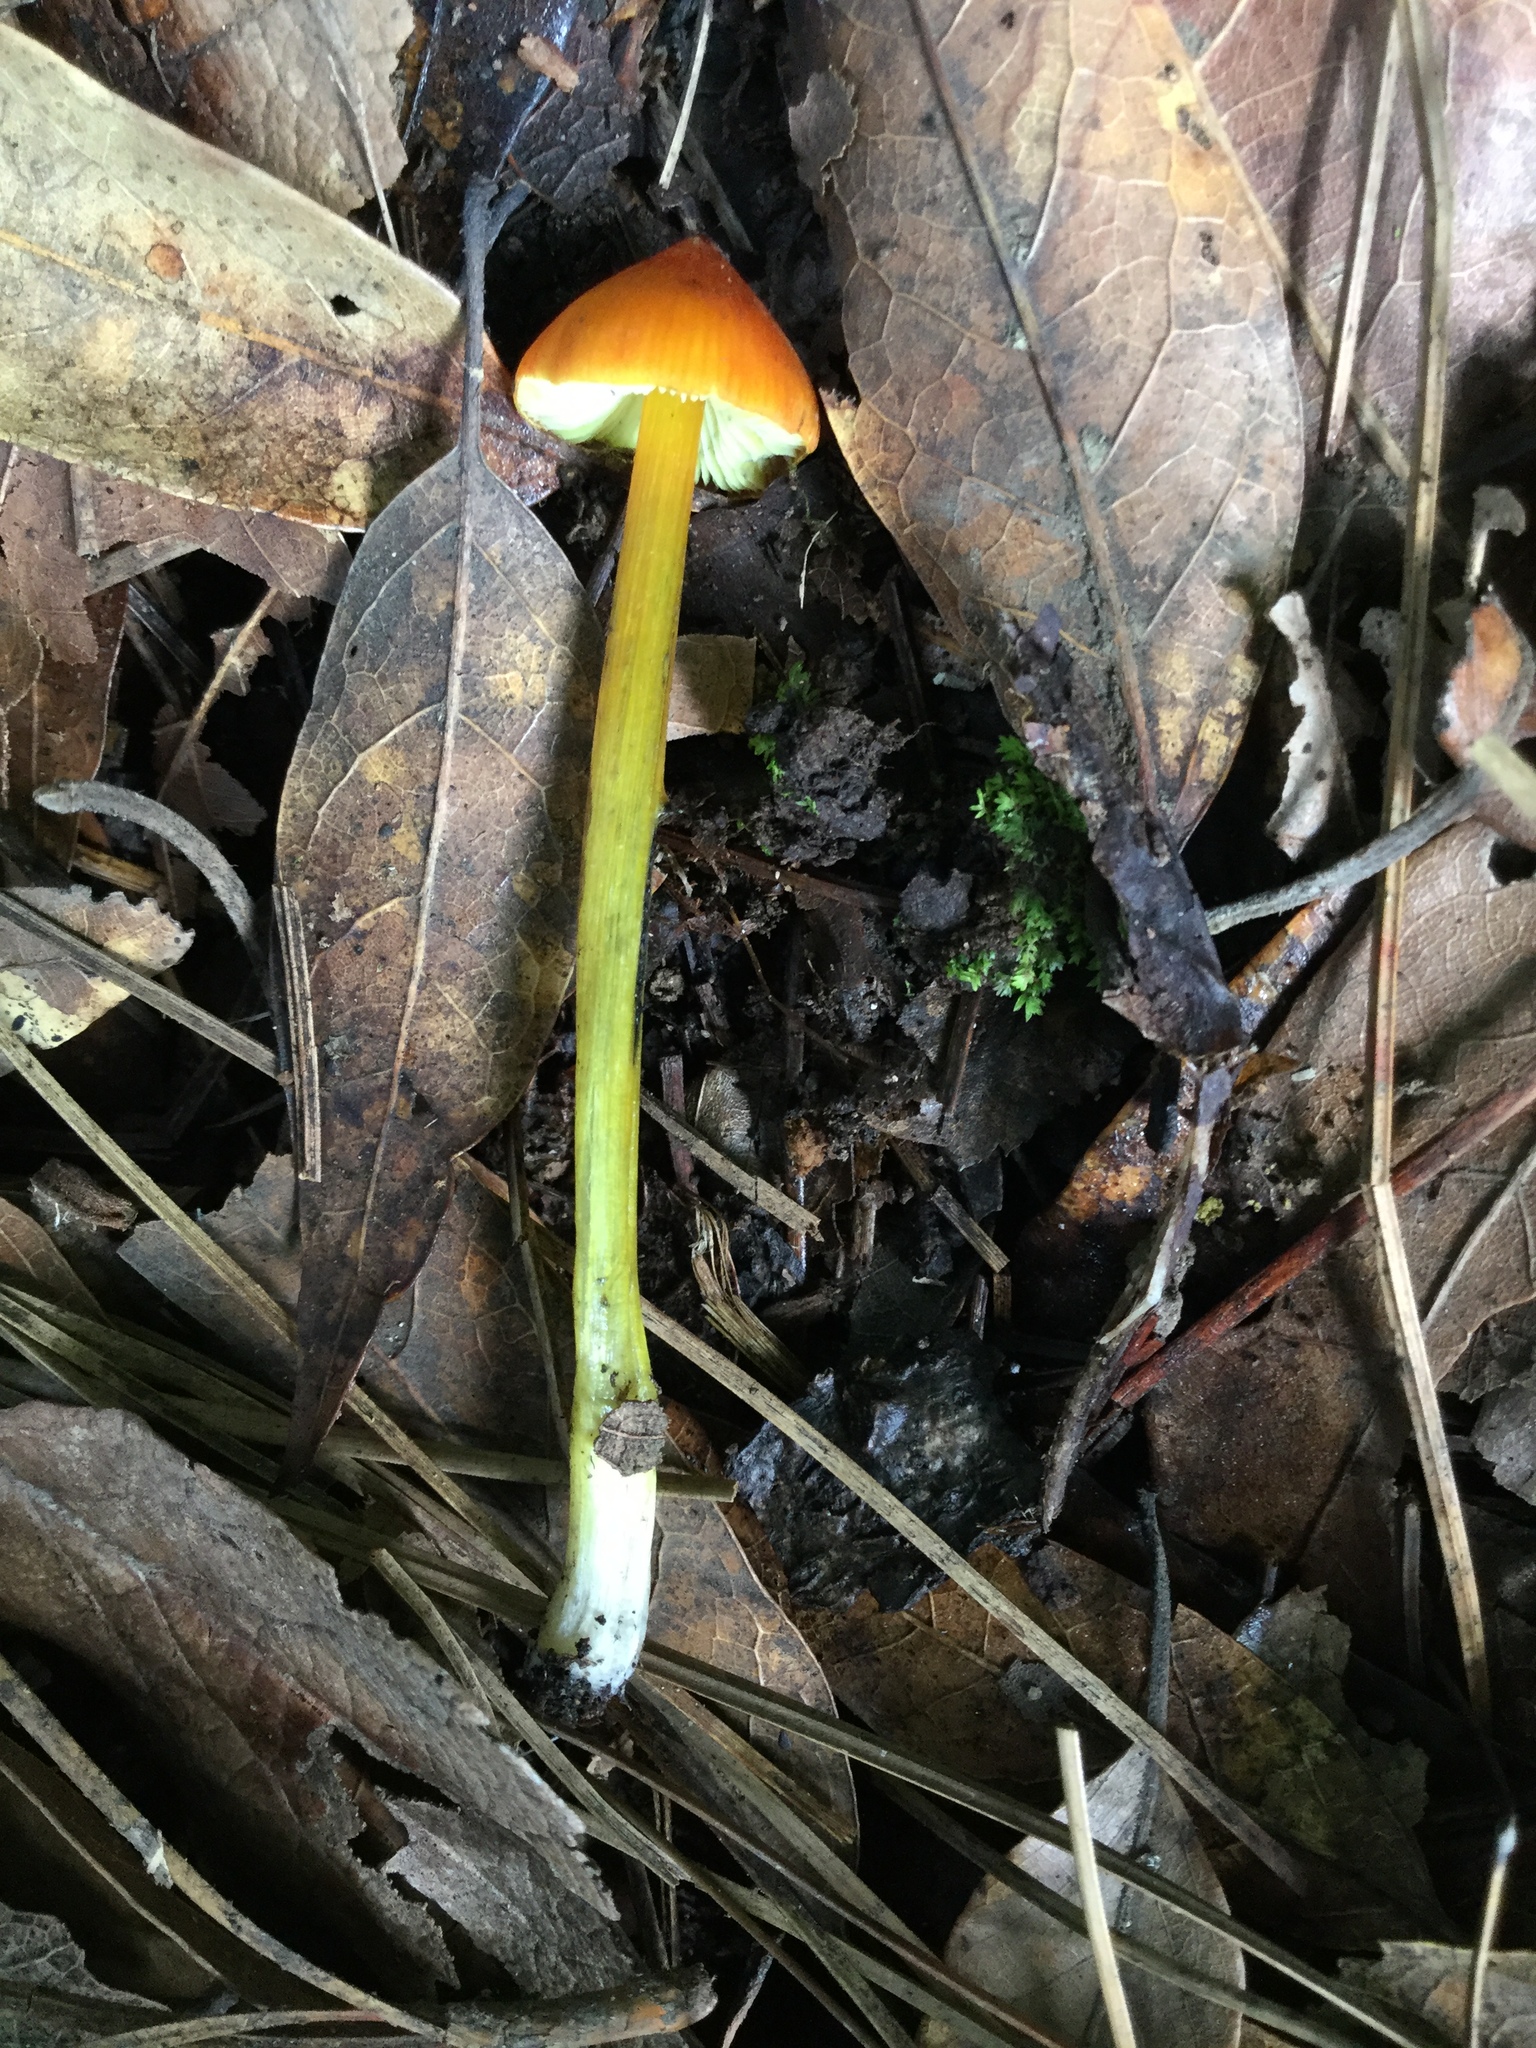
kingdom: Fungi
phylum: Basidiomycota
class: Agaricomycetes
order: Agaricales
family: Hygrophoraceae
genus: Hygrocybe
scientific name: Hygrocybe conica
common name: Blackening wax-cap
